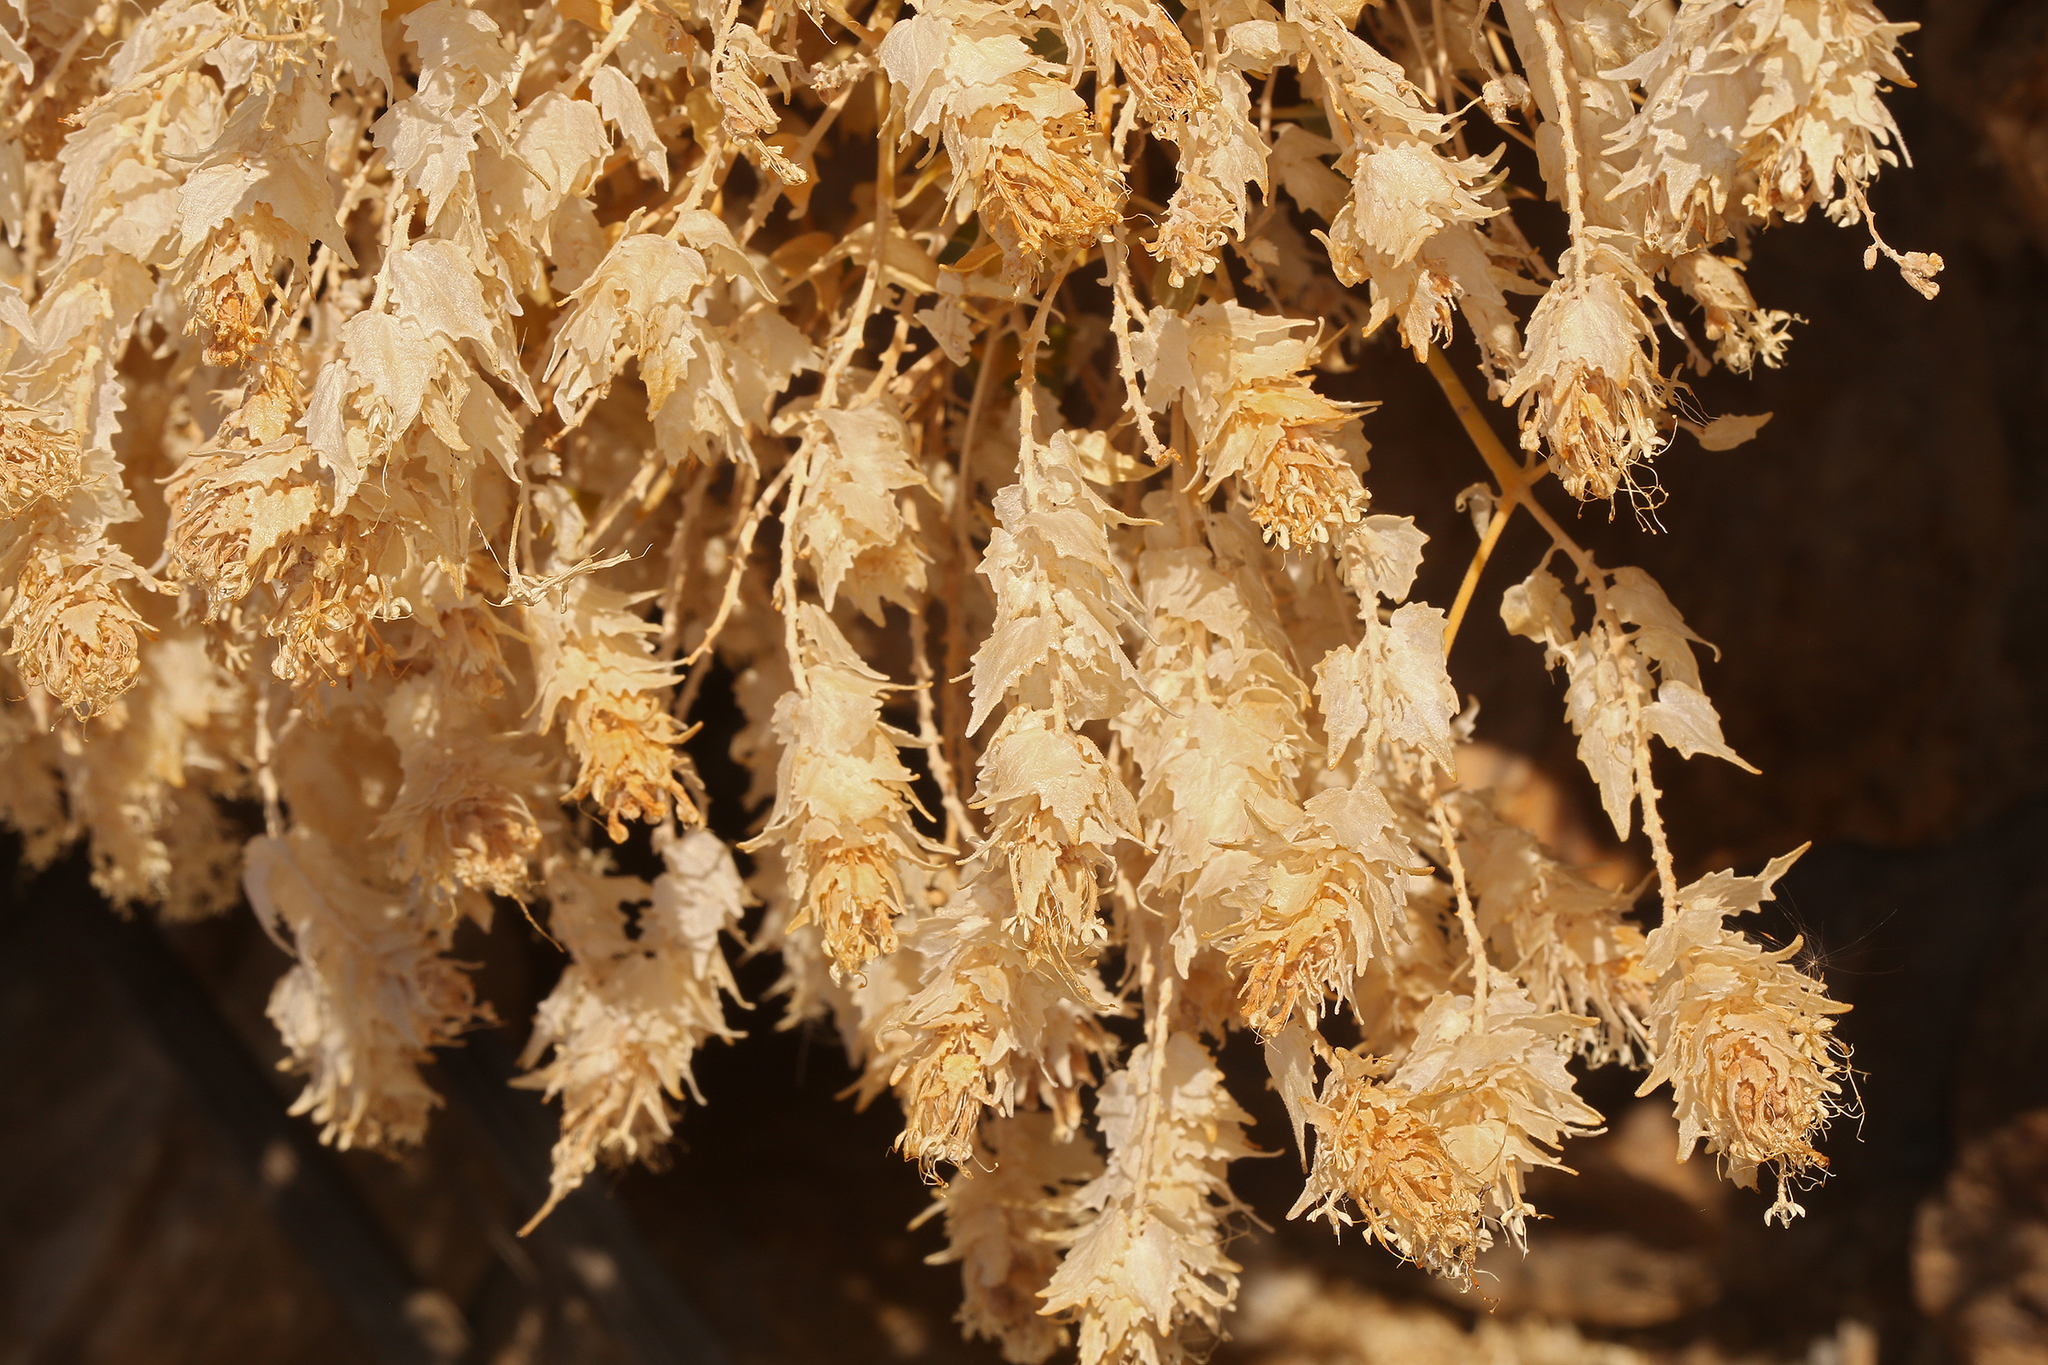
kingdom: Plantae
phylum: Tracheophyta
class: Magnoliopsida
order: Cornales
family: Loasaceae
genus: Petalonyx
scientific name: Petalonyx nitidus
